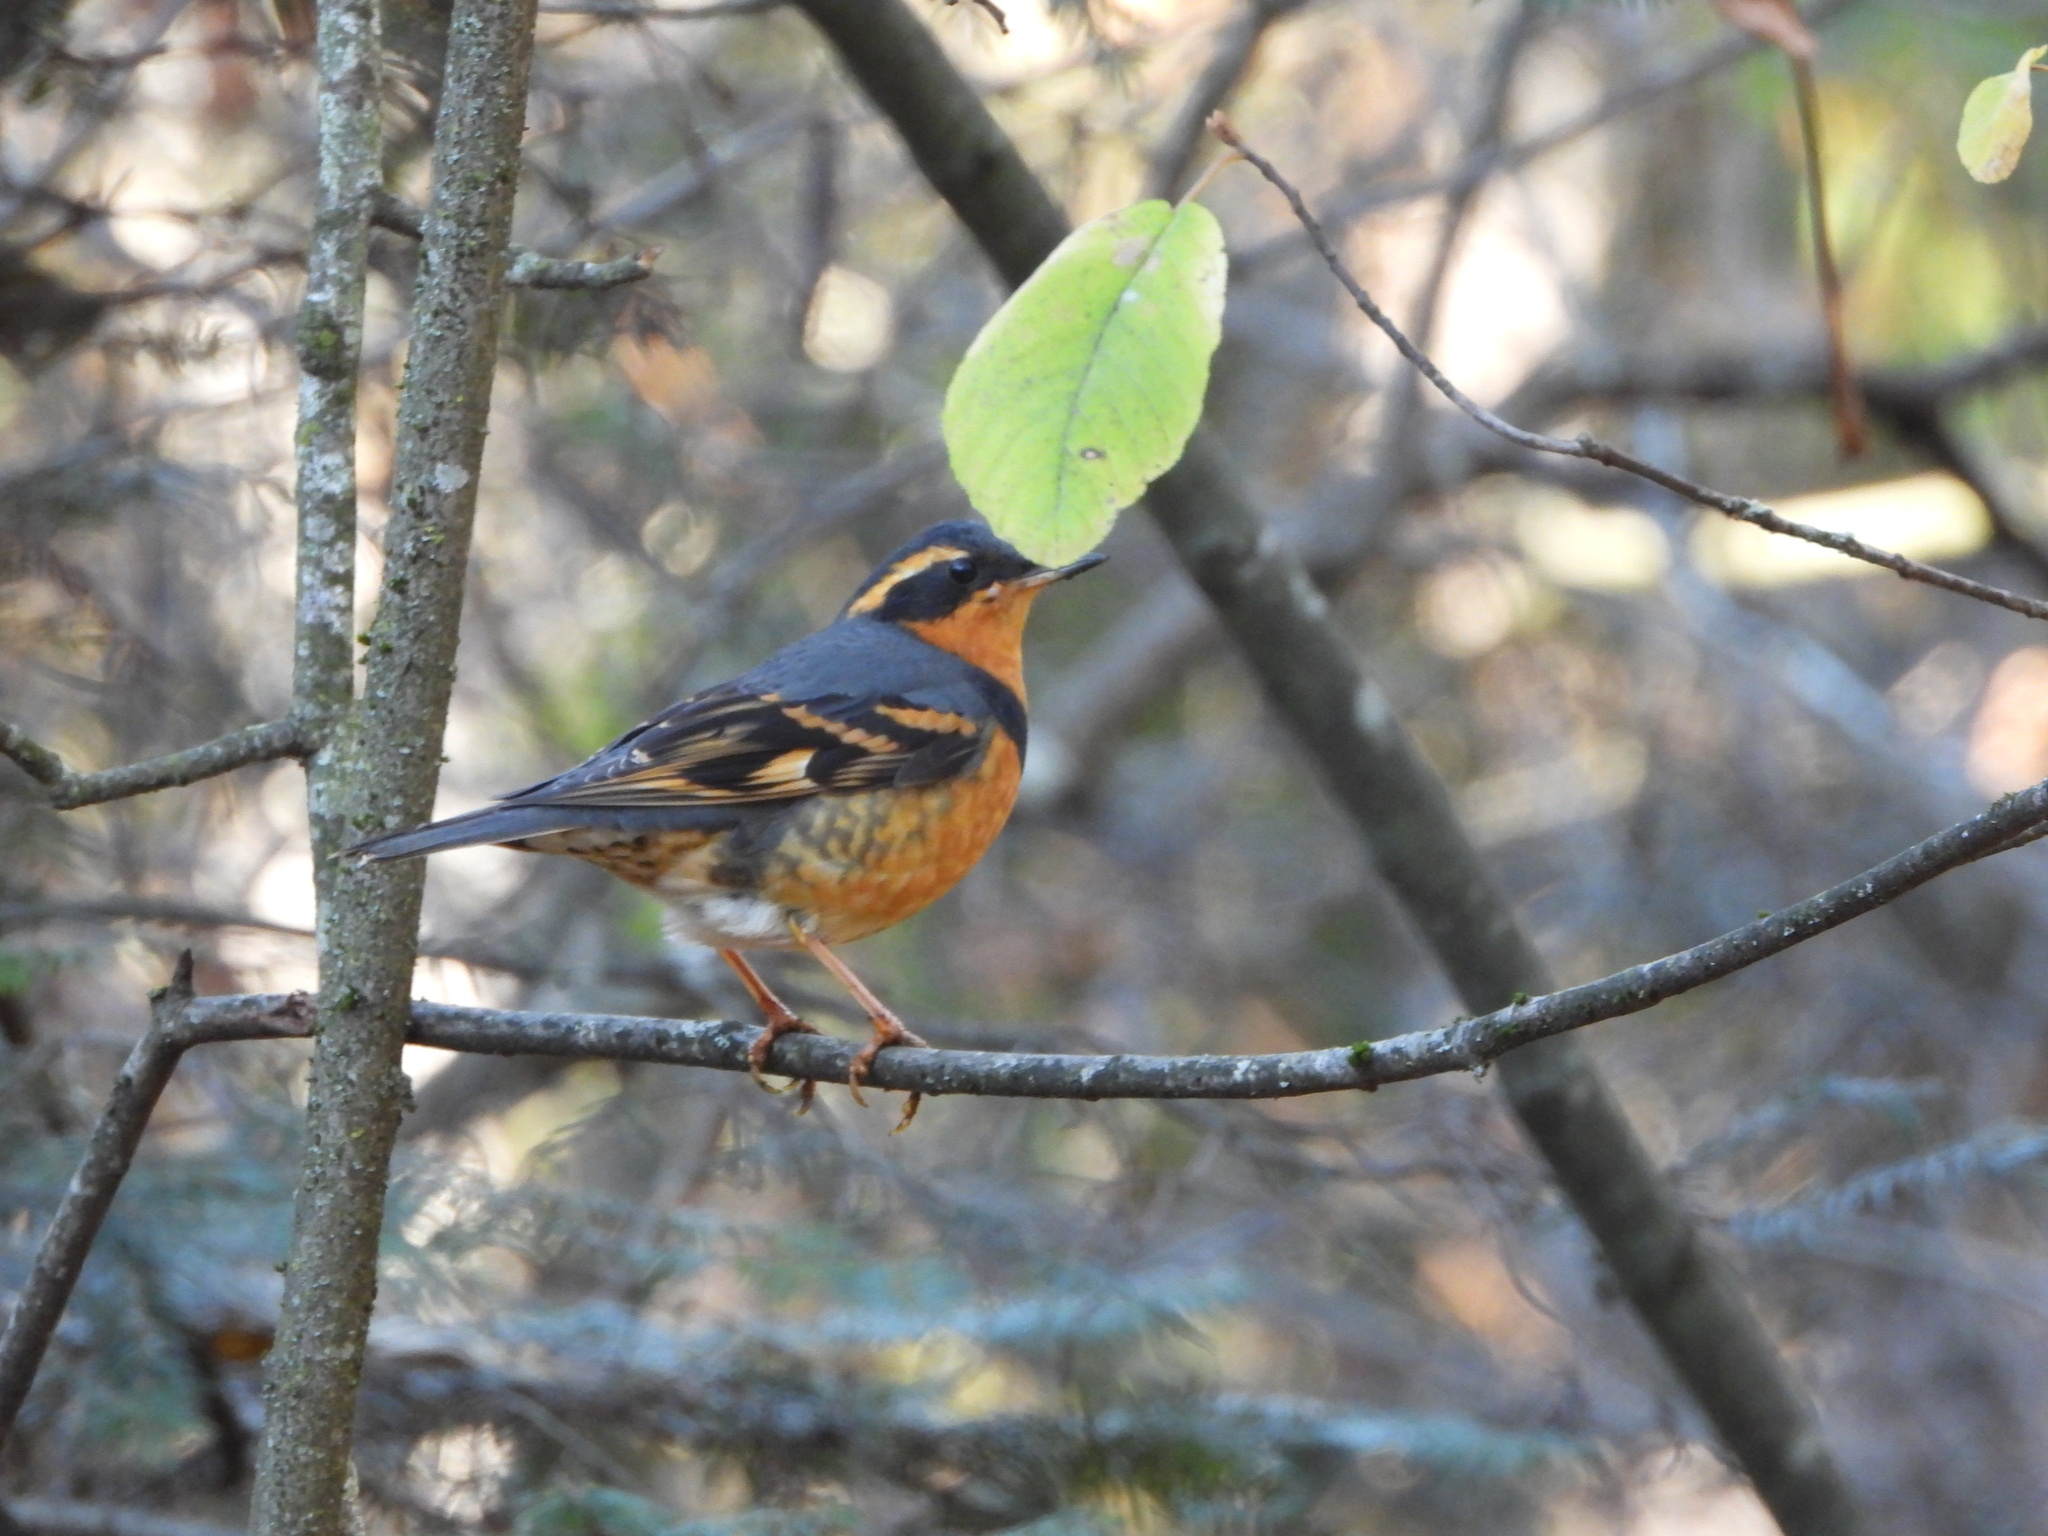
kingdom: Animalia
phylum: Chordata
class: Aves
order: Passeriformes
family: Turdidae
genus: Ixoreus
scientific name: Ixoreus naevius
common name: Varied thrush
